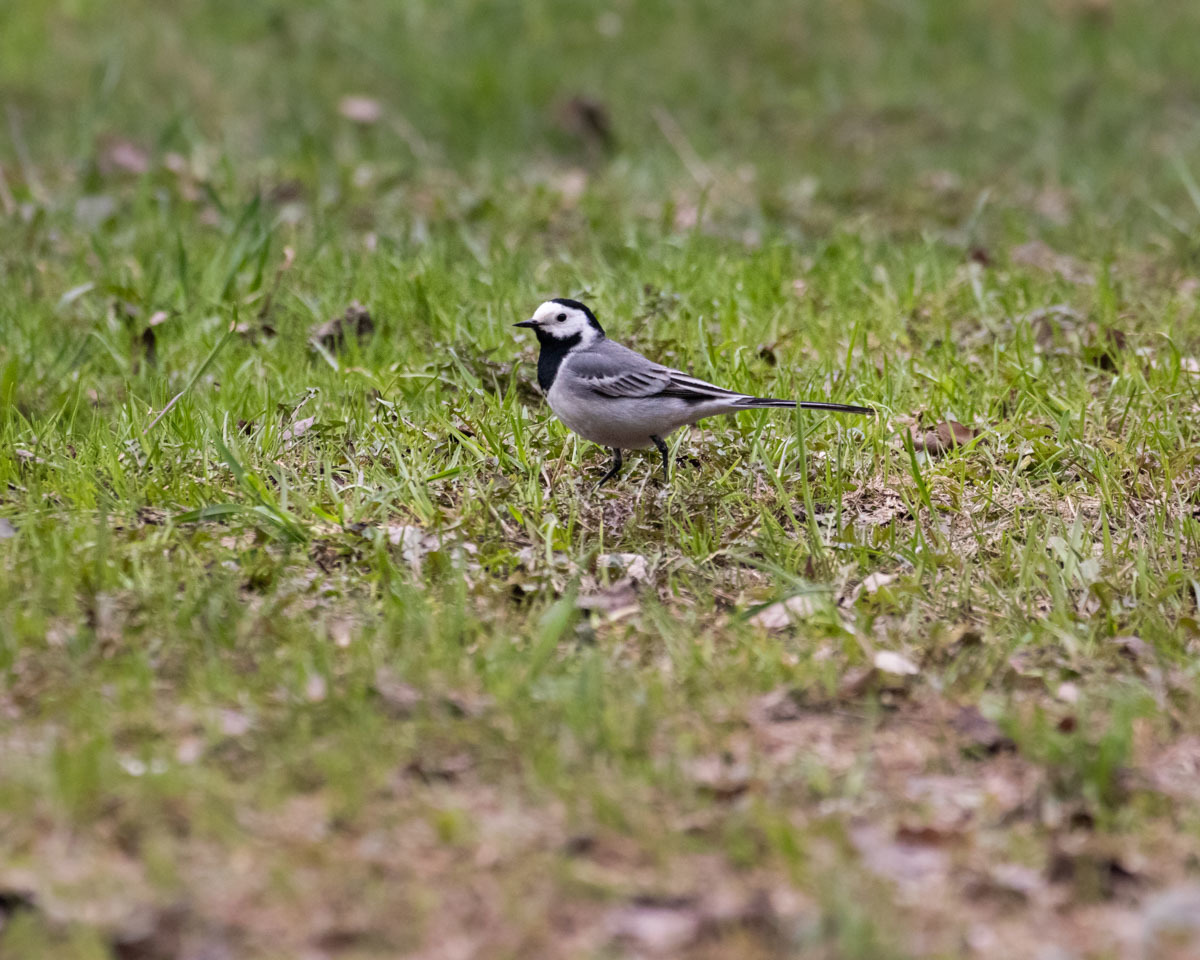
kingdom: Animalia
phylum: Chordata
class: Aves
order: Passeriformes
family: Motacillidae
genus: Motacilla
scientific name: Motacilla alba
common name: White wagtail
